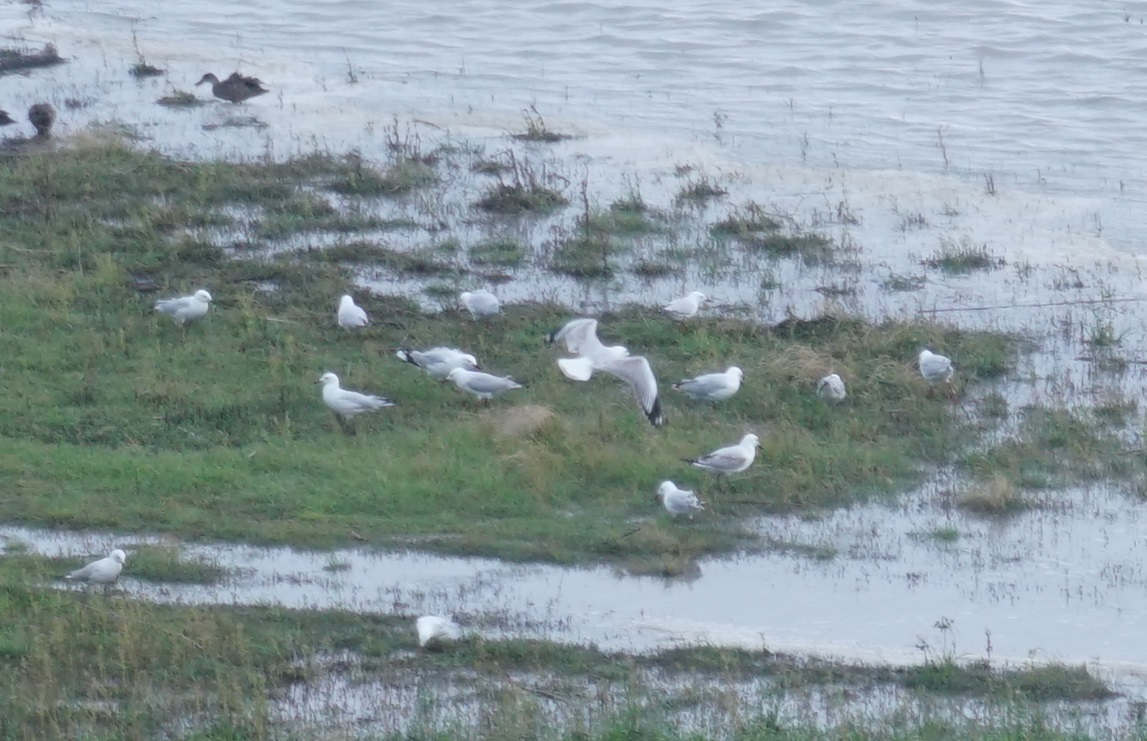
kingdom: Animalia
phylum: Chordata
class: Aves
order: Charadriiformes
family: Laridae
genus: Chroicocephalus
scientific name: Chroicocephalus novaehollandiae
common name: Silver gull
